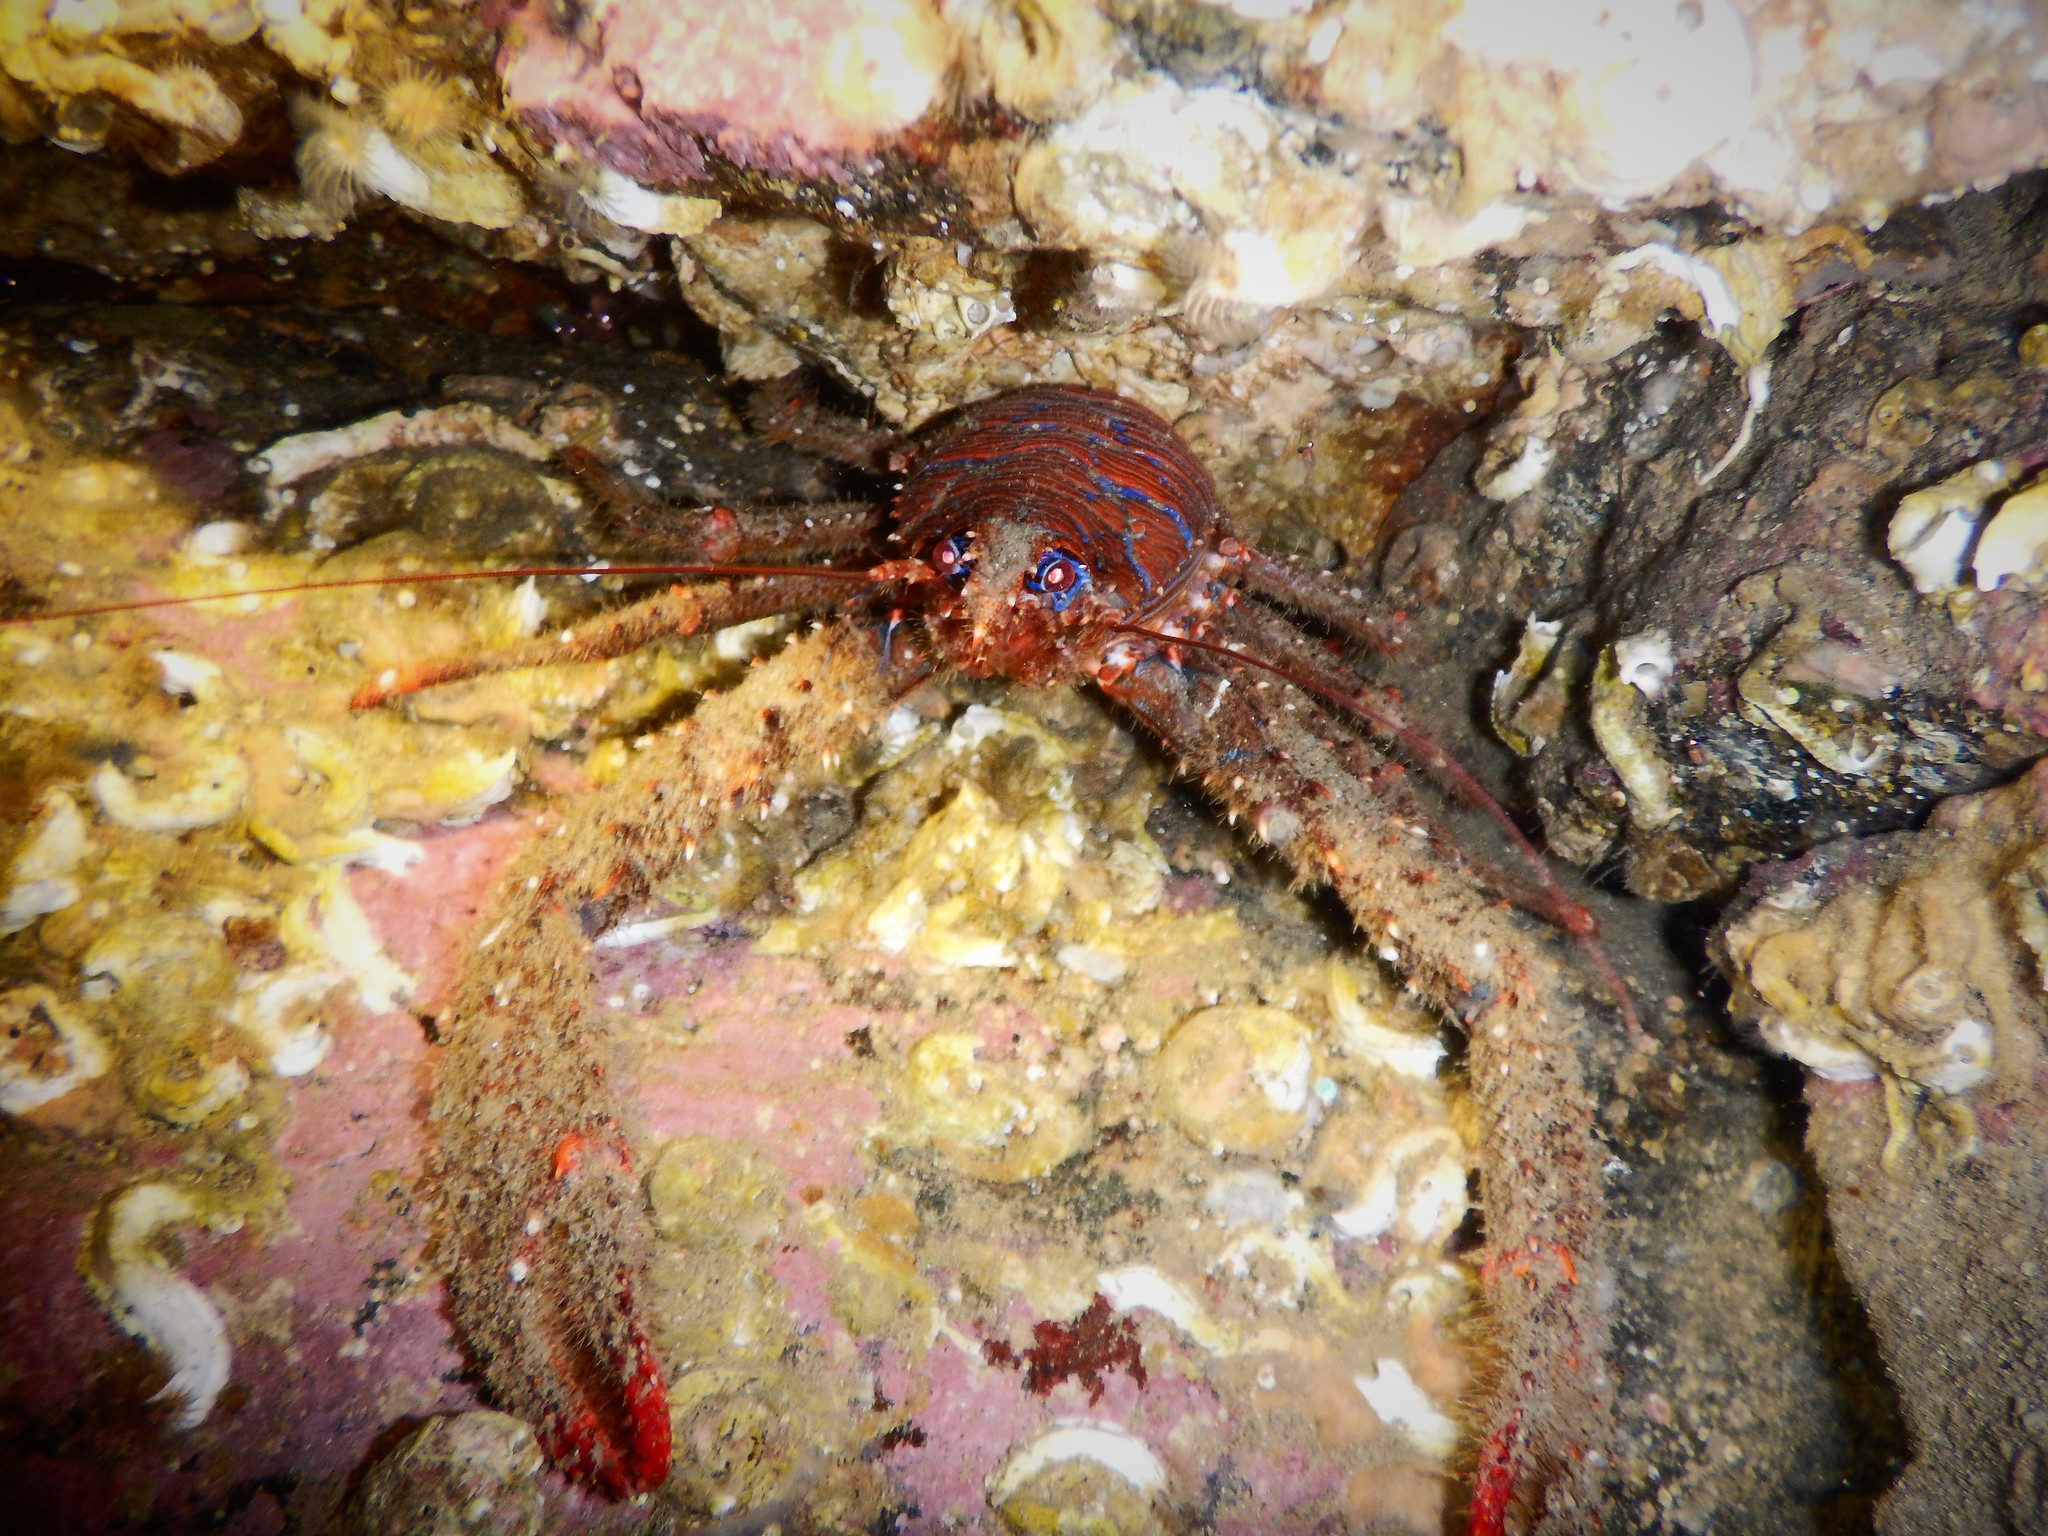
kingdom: Animalia
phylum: Arthropoda
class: Malacostraca
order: Decapoda
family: Galatheidae
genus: Galathea
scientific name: Galathea strigosa
